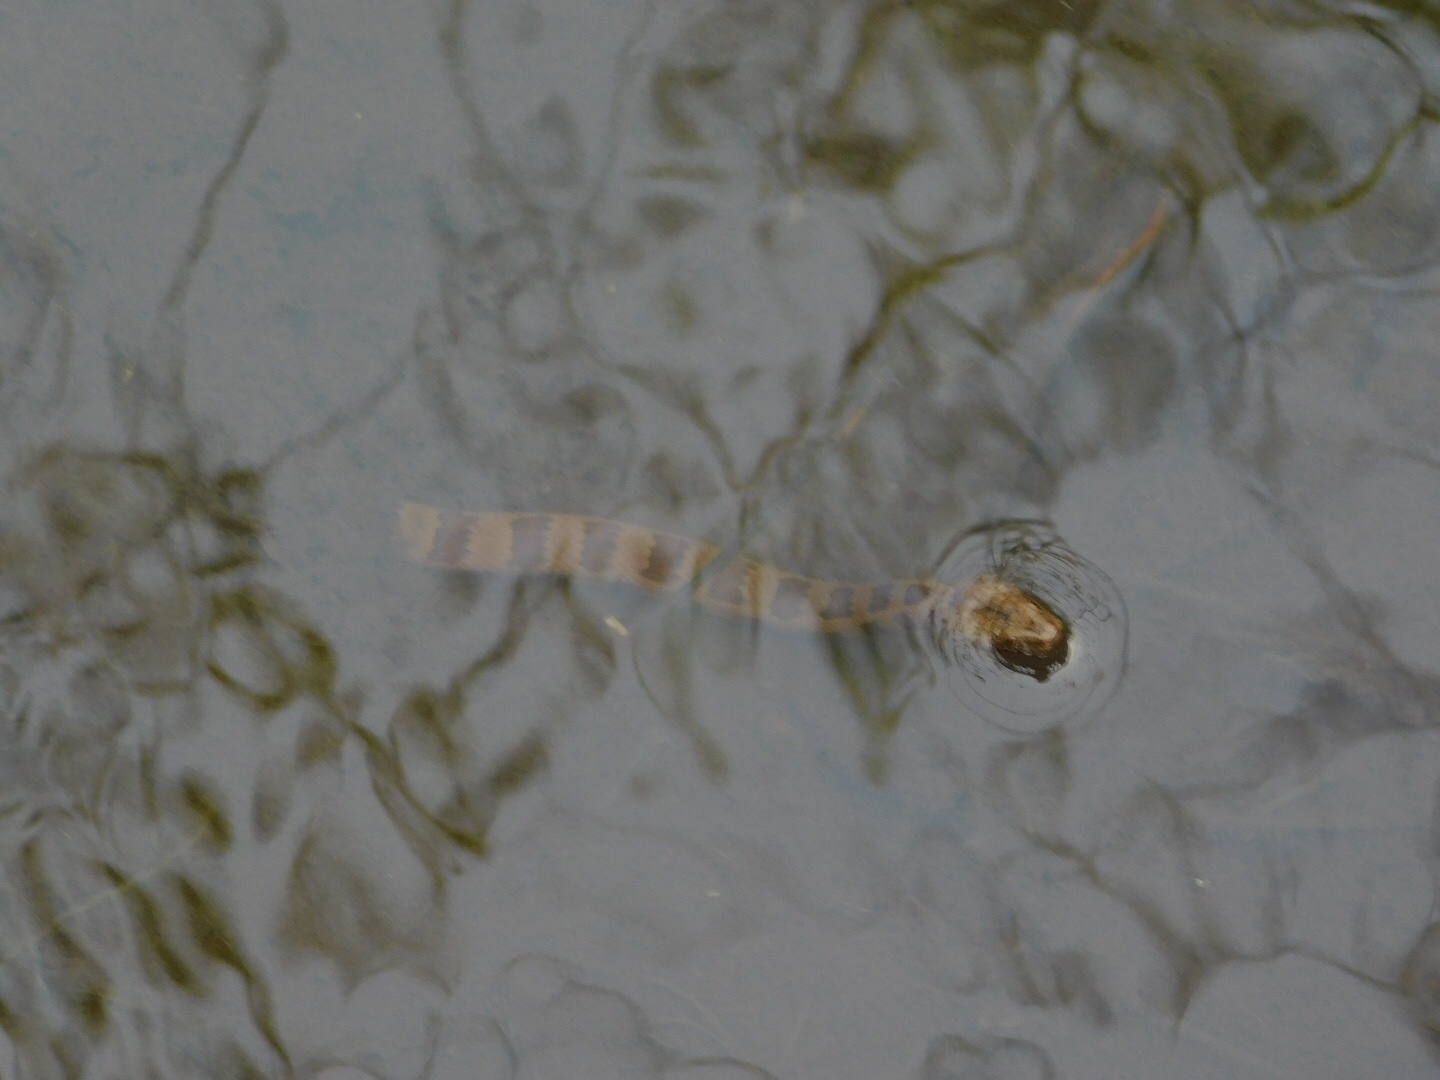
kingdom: Animalia
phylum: Chordata
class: Squamata
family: Colubridae
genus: Nerodia
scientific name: Nerodia taxispilota
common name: Brown water snake
